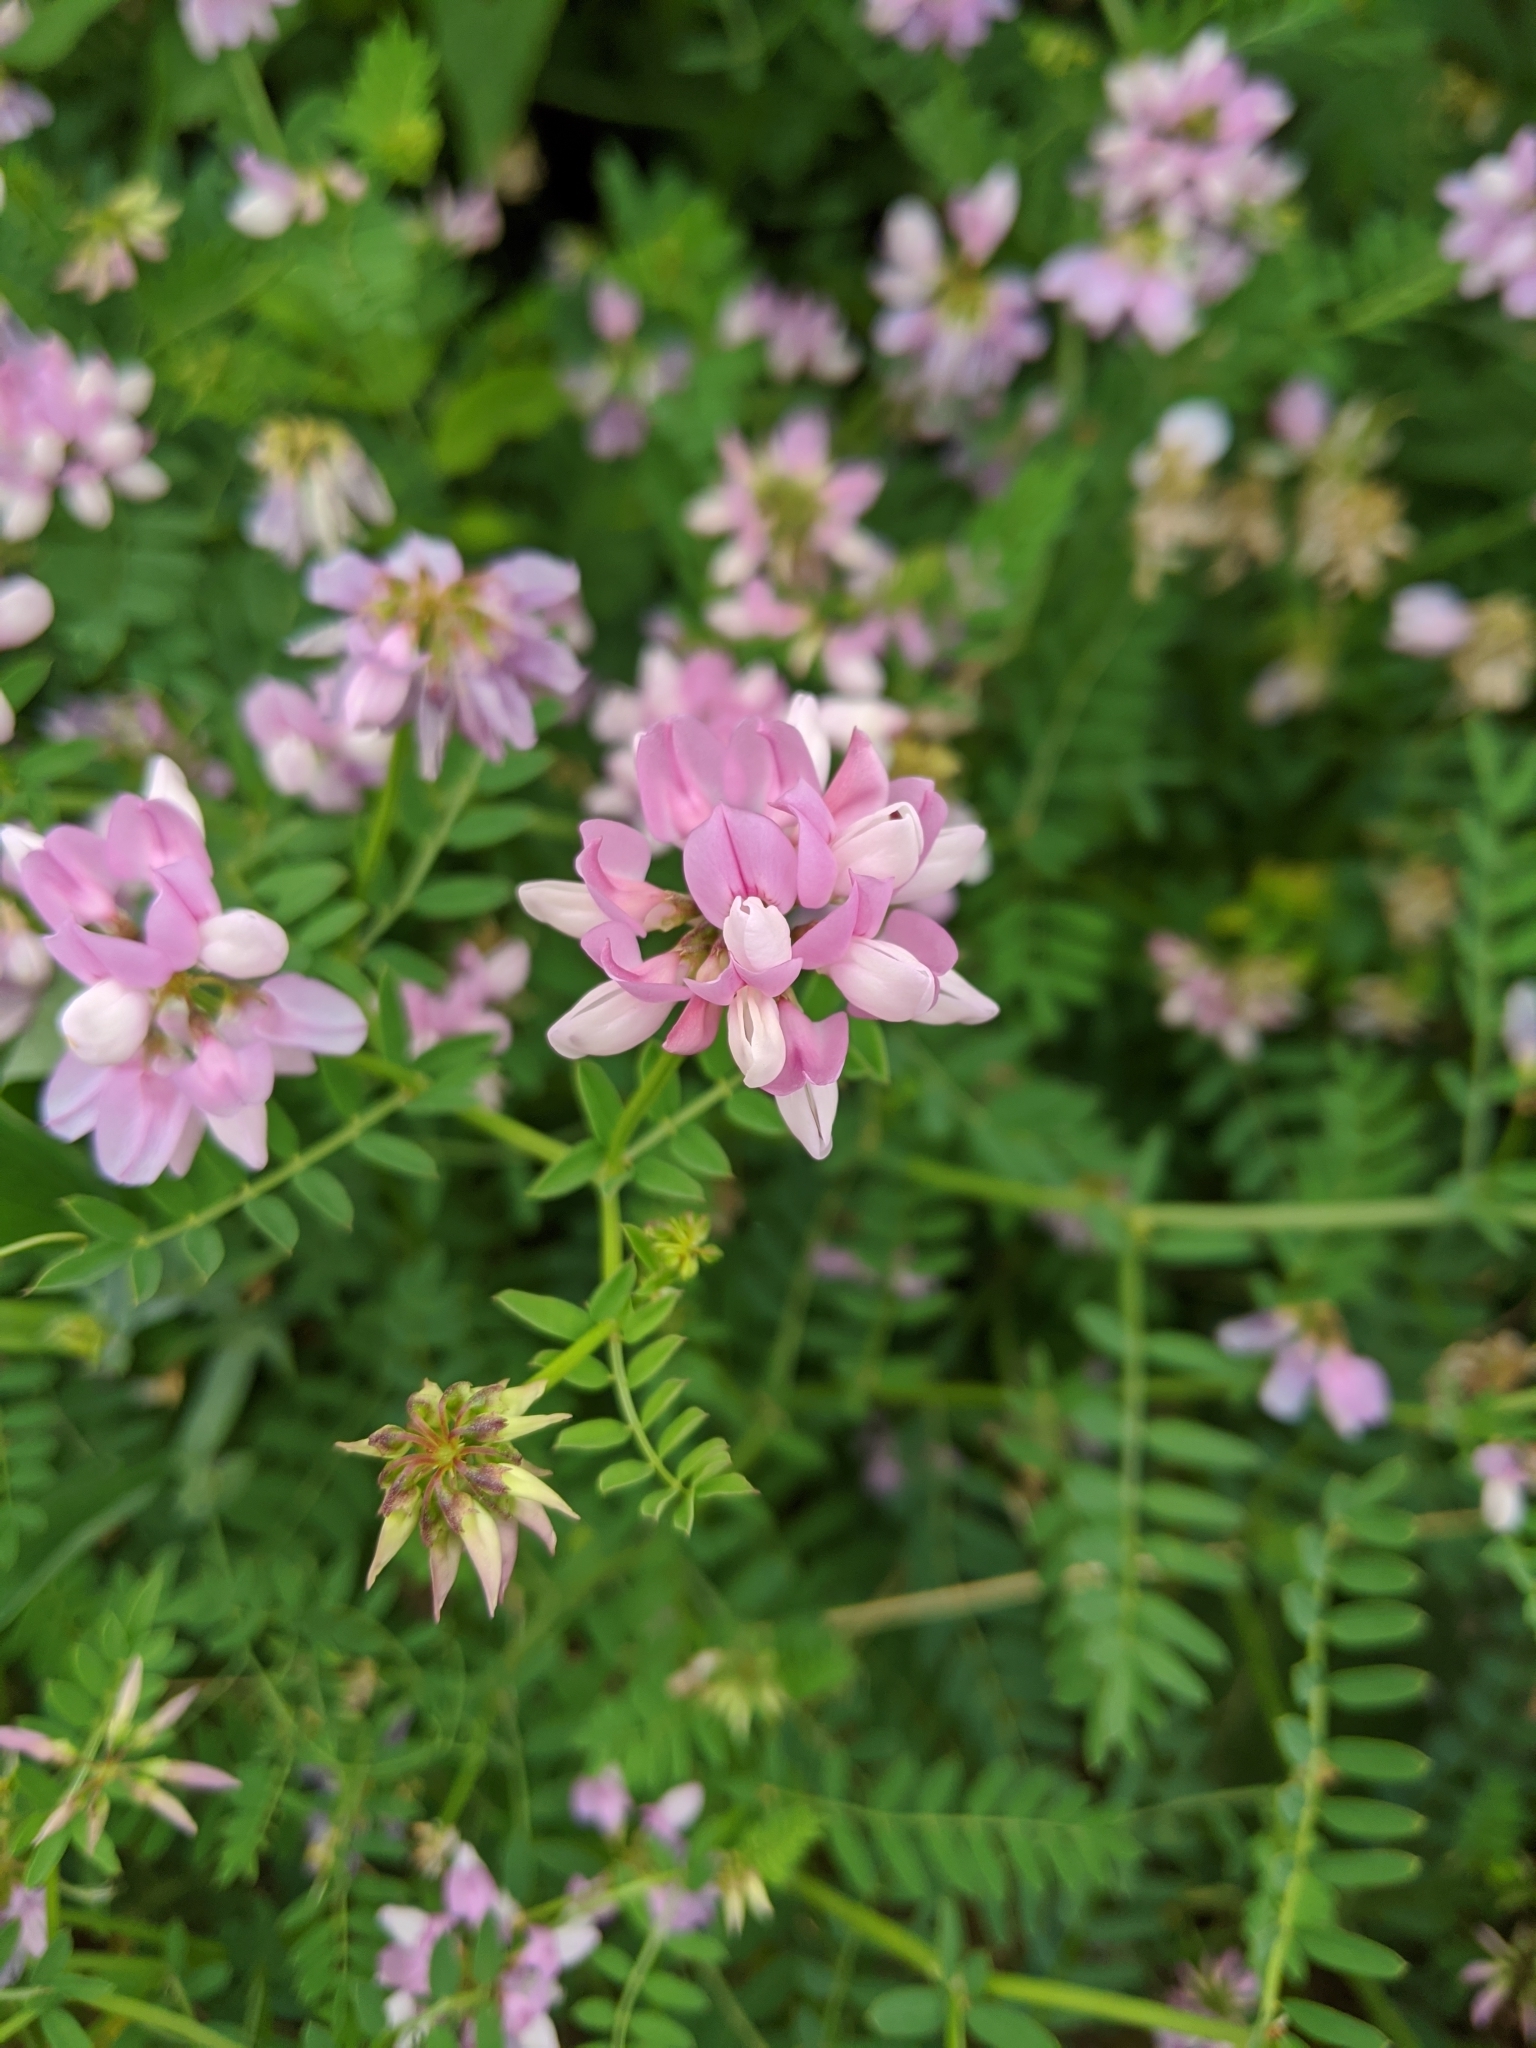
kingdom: Plantae
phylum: Tracheophyta
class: Magnoliopsida
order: Fabales
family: Fabaceae
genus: Coronilla
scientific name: Coronilla varia
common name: Crownvetch
